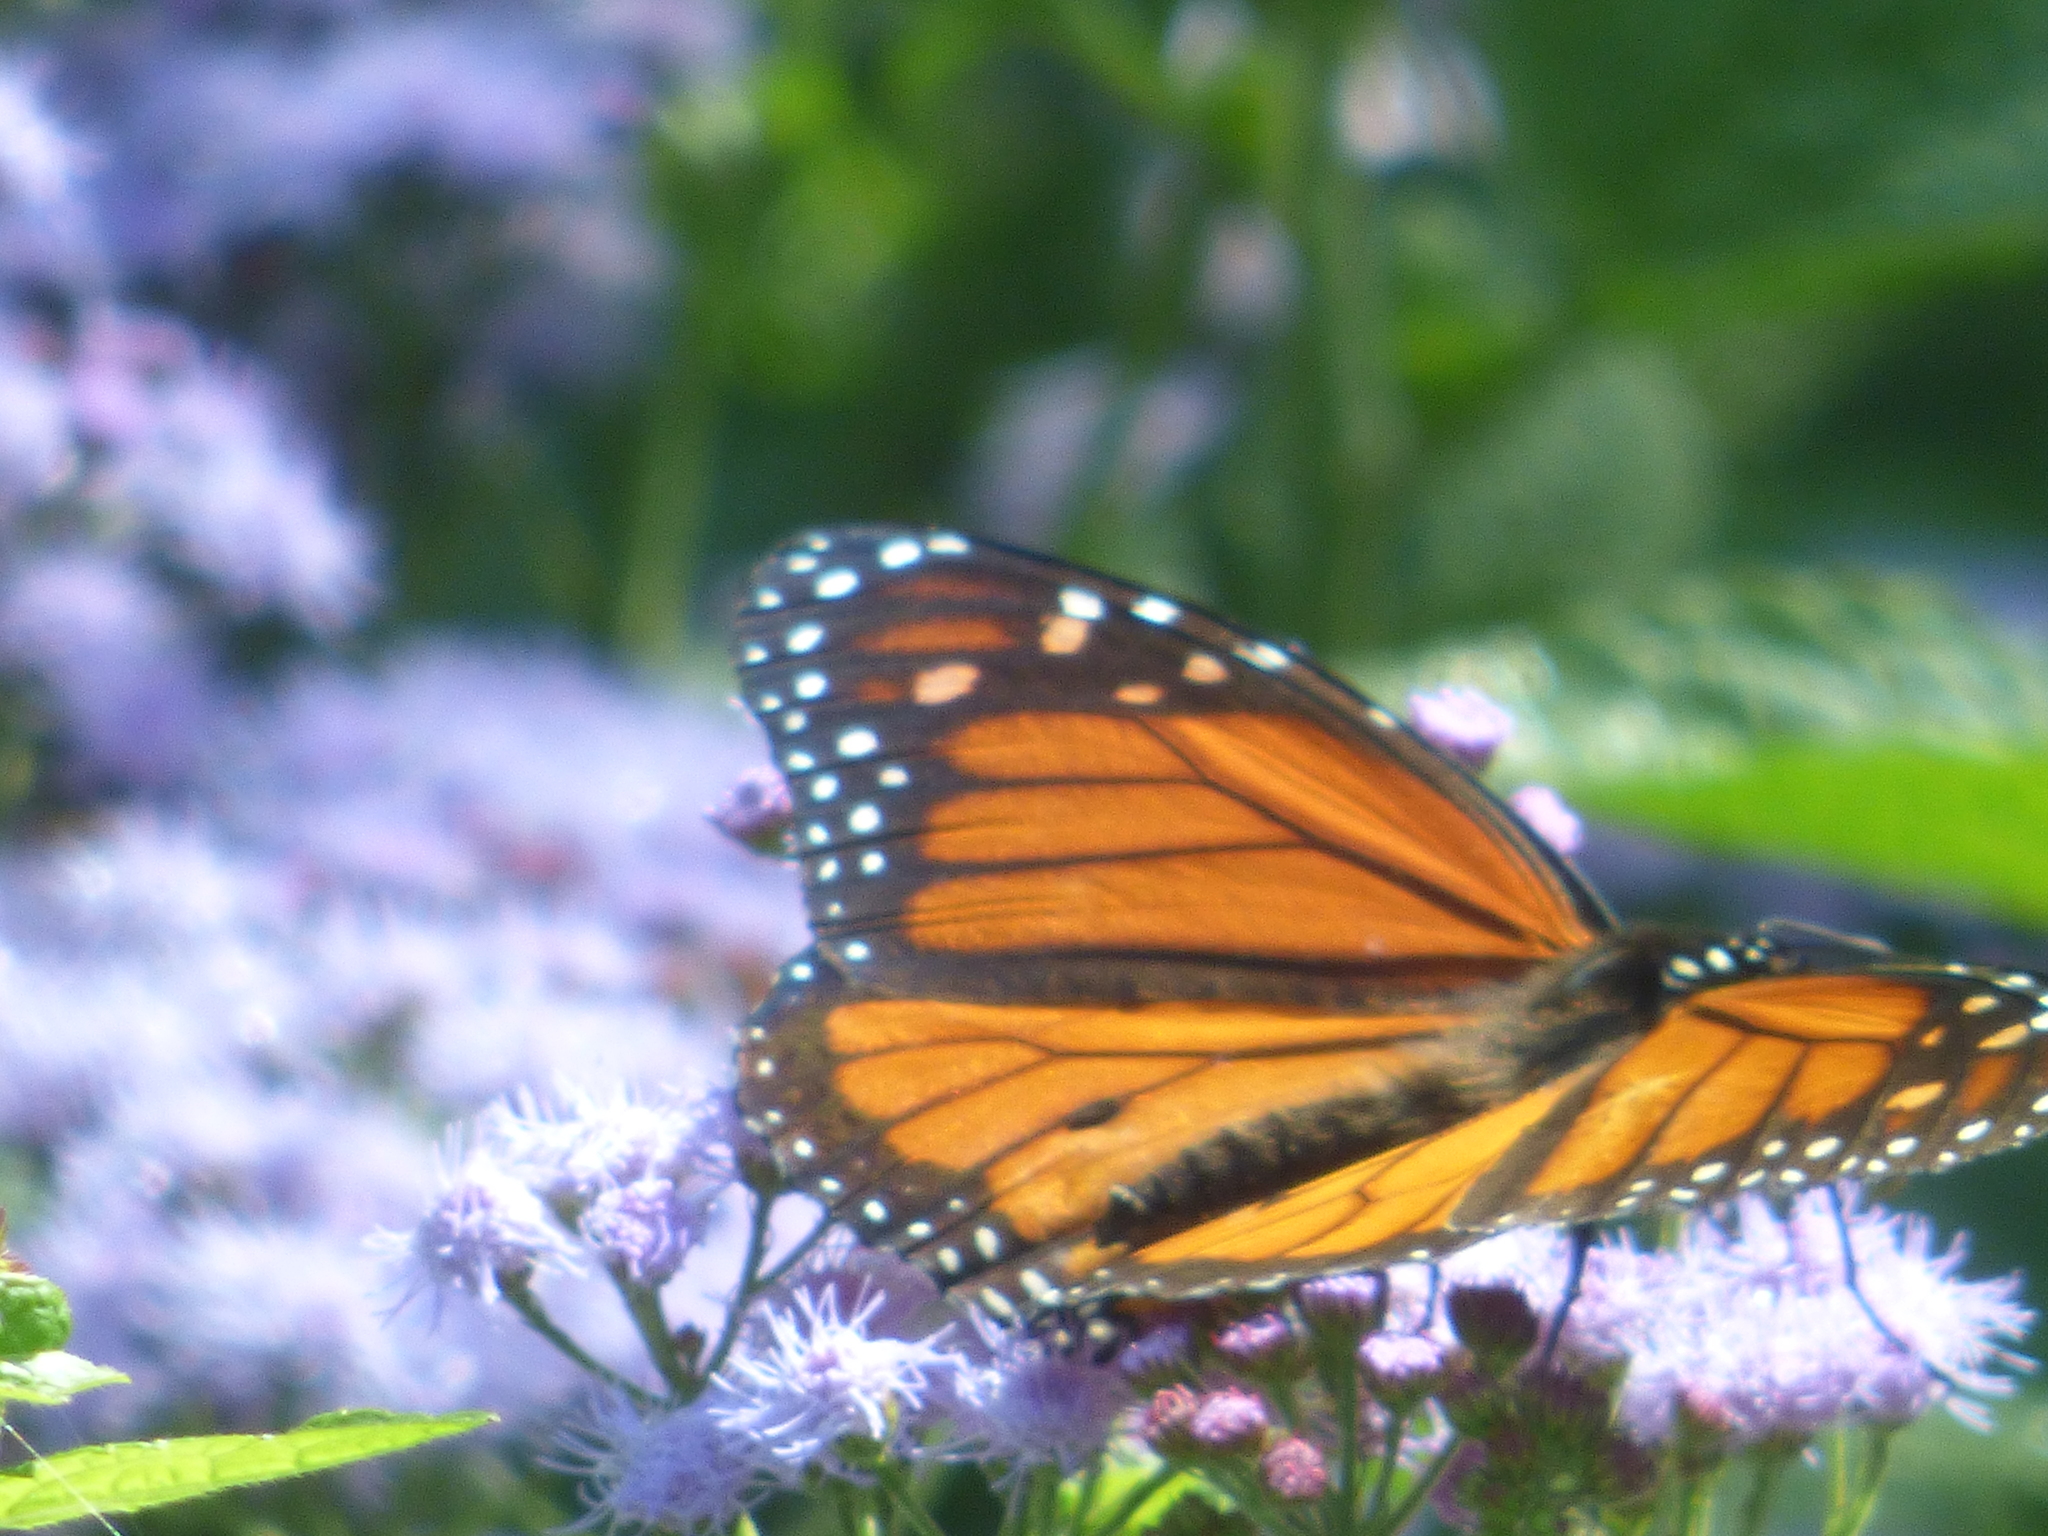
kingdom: Animalia
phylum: Arthropoda
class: Insecta
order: Lepidoptera
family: Nymphalidae
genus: Danaus
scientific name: Danaus plexippus
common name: Monarch
